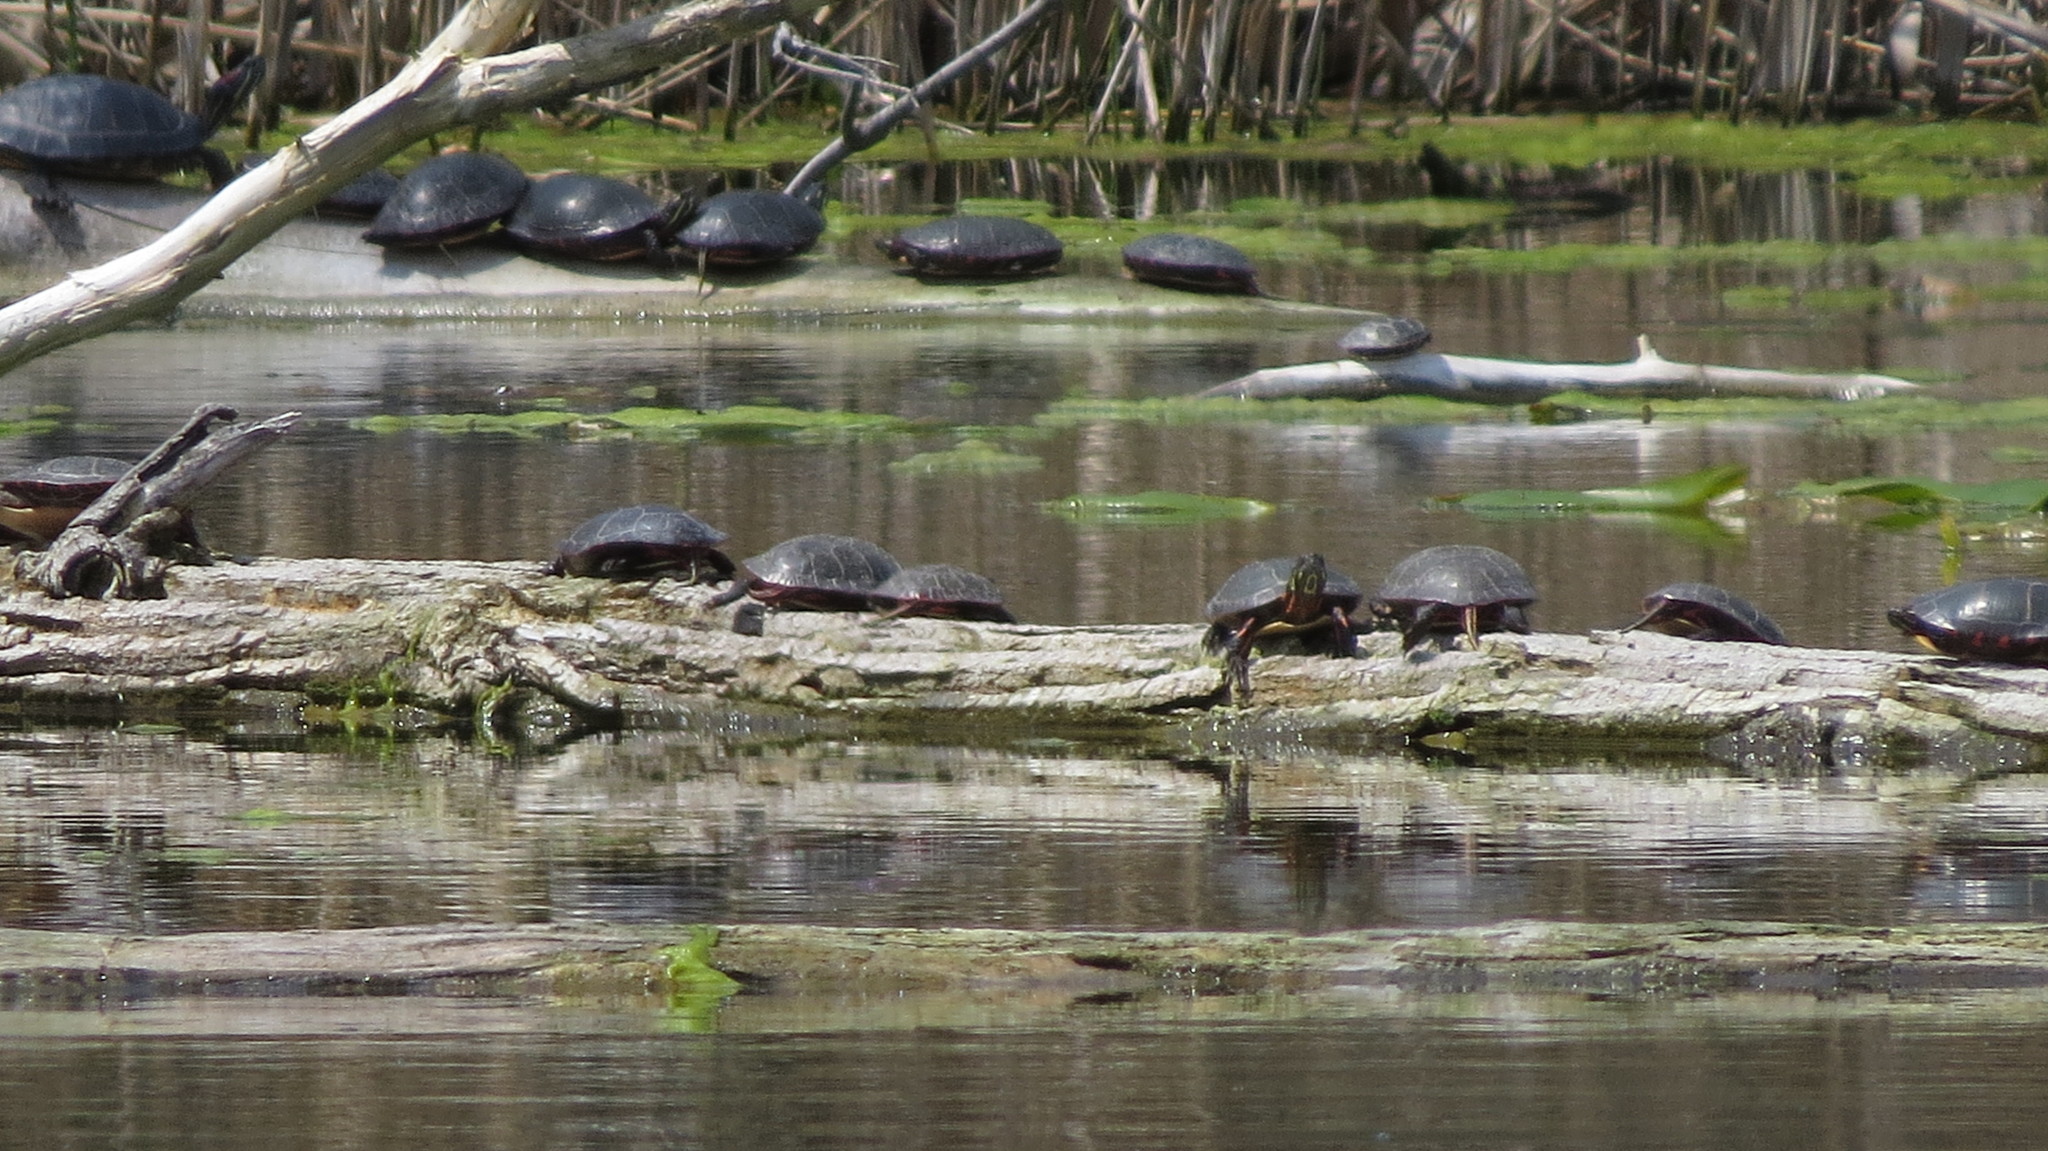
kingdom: Animalia
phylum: Chordata
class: Testudines
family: Emydidae
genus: Chrysemys
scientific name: Chrysemys picta
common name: Painted turtle
